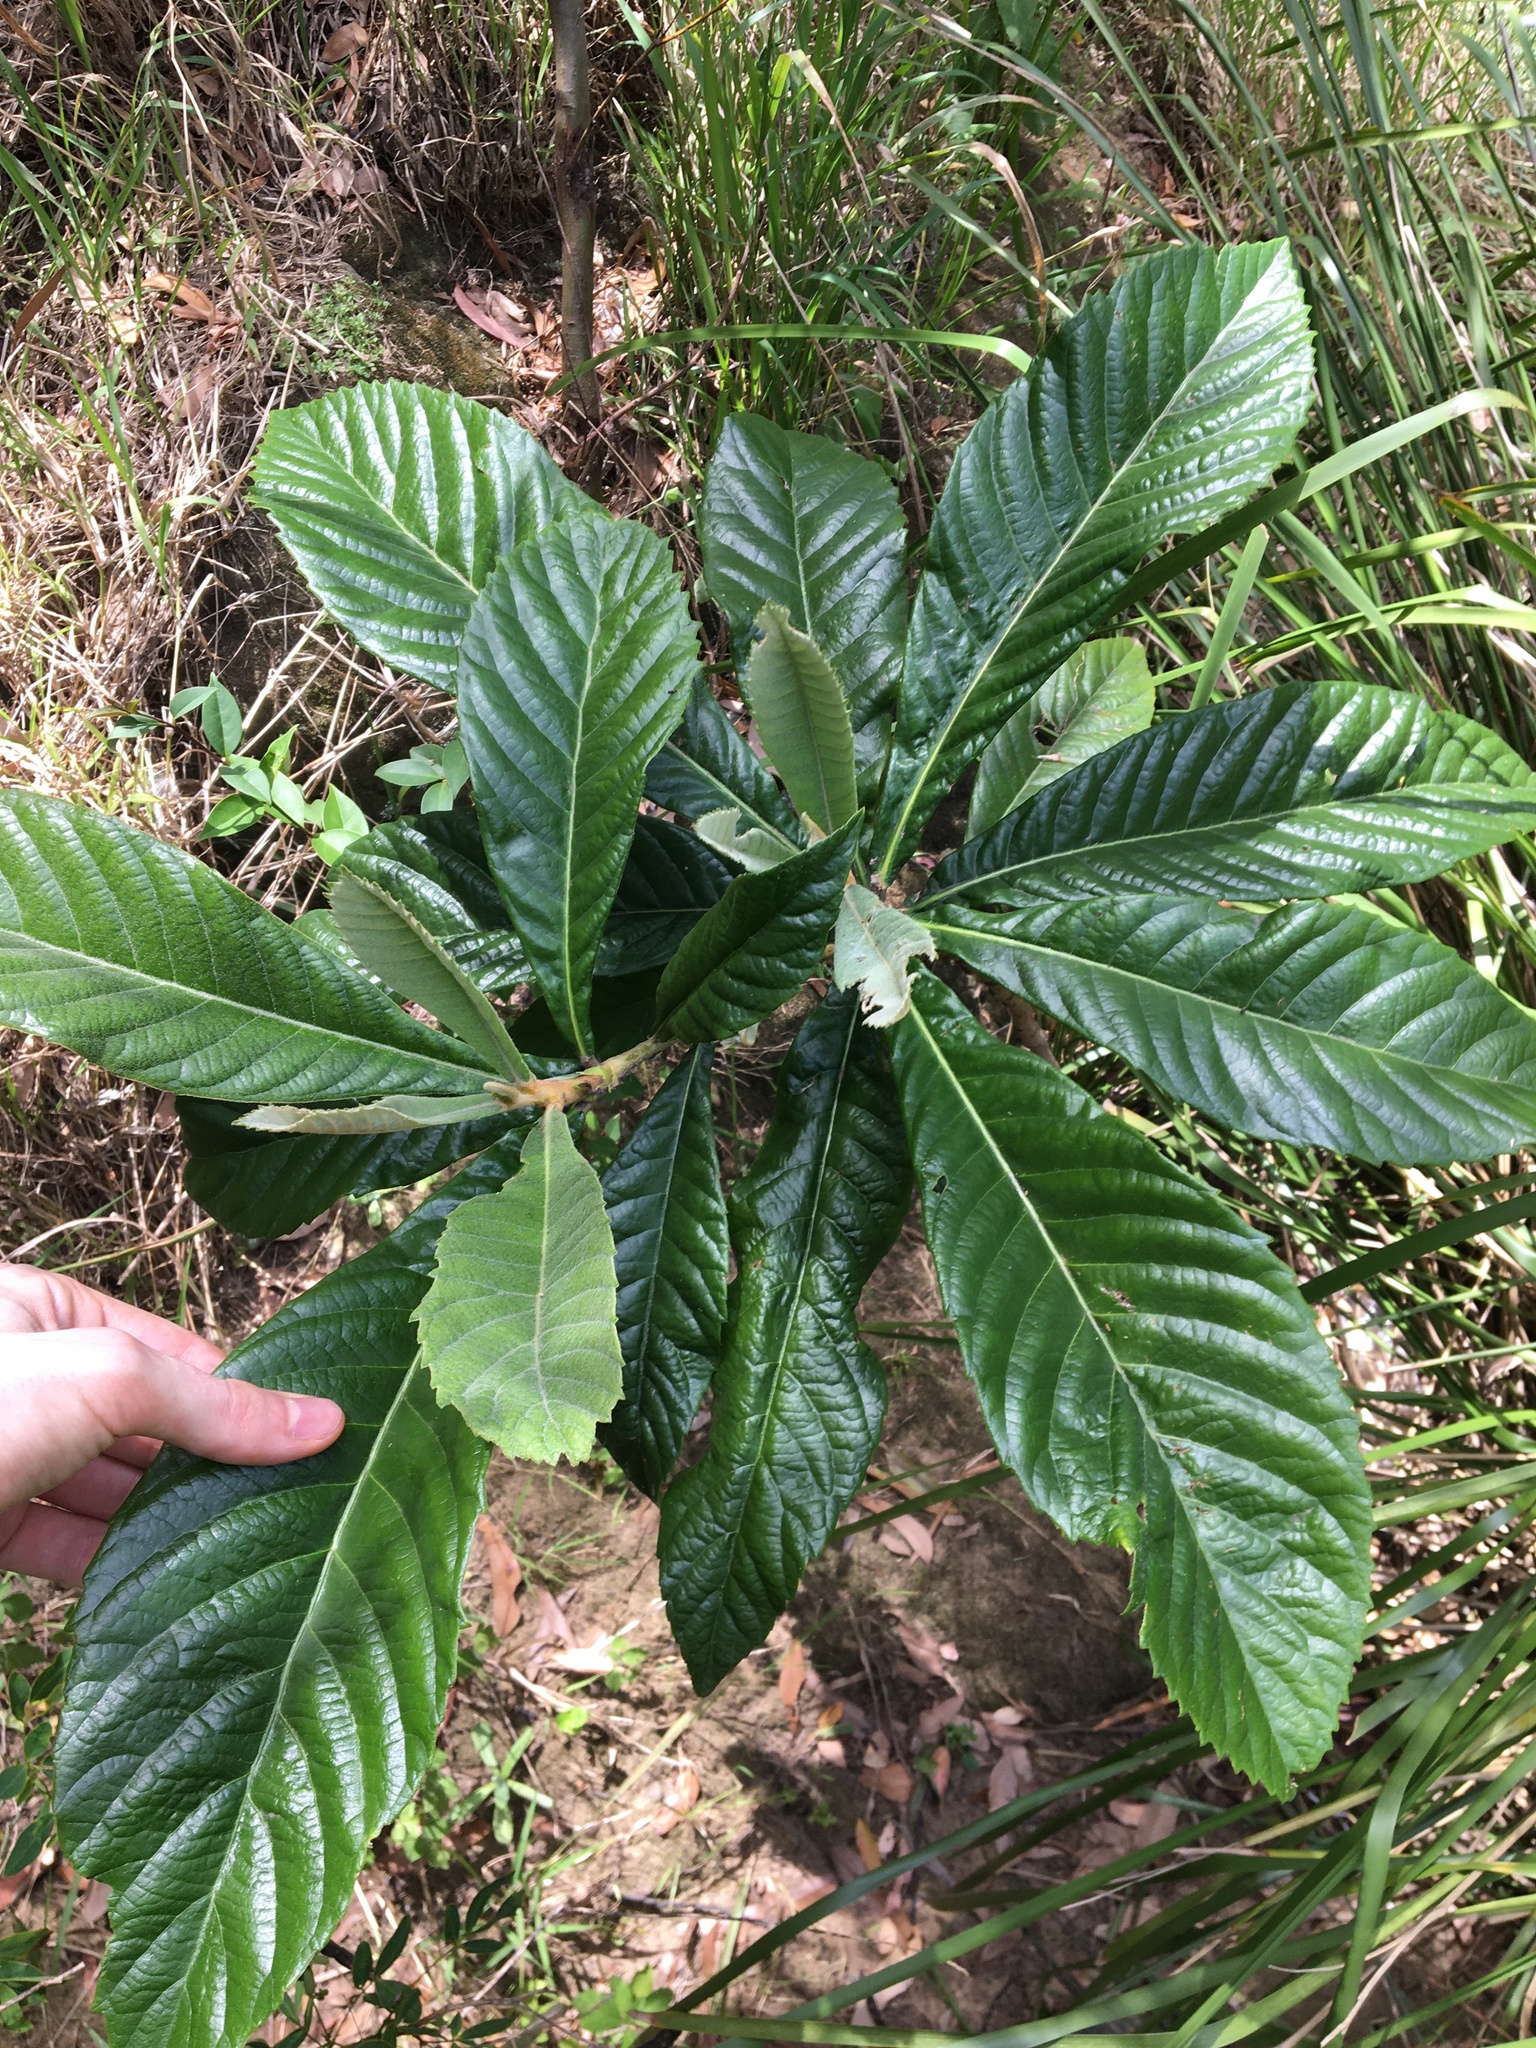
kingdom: Plantae
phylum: Tracheophyta
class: Magnoliopsida
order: Rosales
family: Rosaceae
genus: Rhaphiolepis
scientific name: Rhaphiolepis bibas
